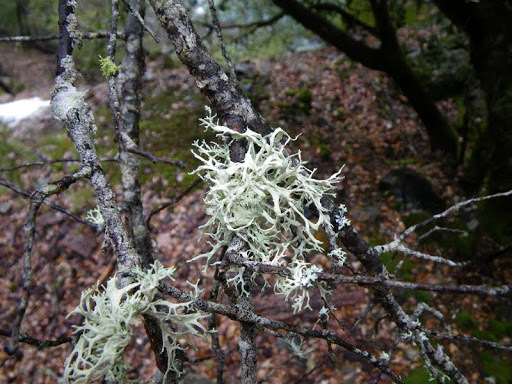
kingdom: Fungi
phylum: Ascomycota
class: Lecanoromycetes
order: Lecanorales
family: Parmeliaceae
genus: Evernia
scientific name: Evernia prunastri
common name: Oak moss
